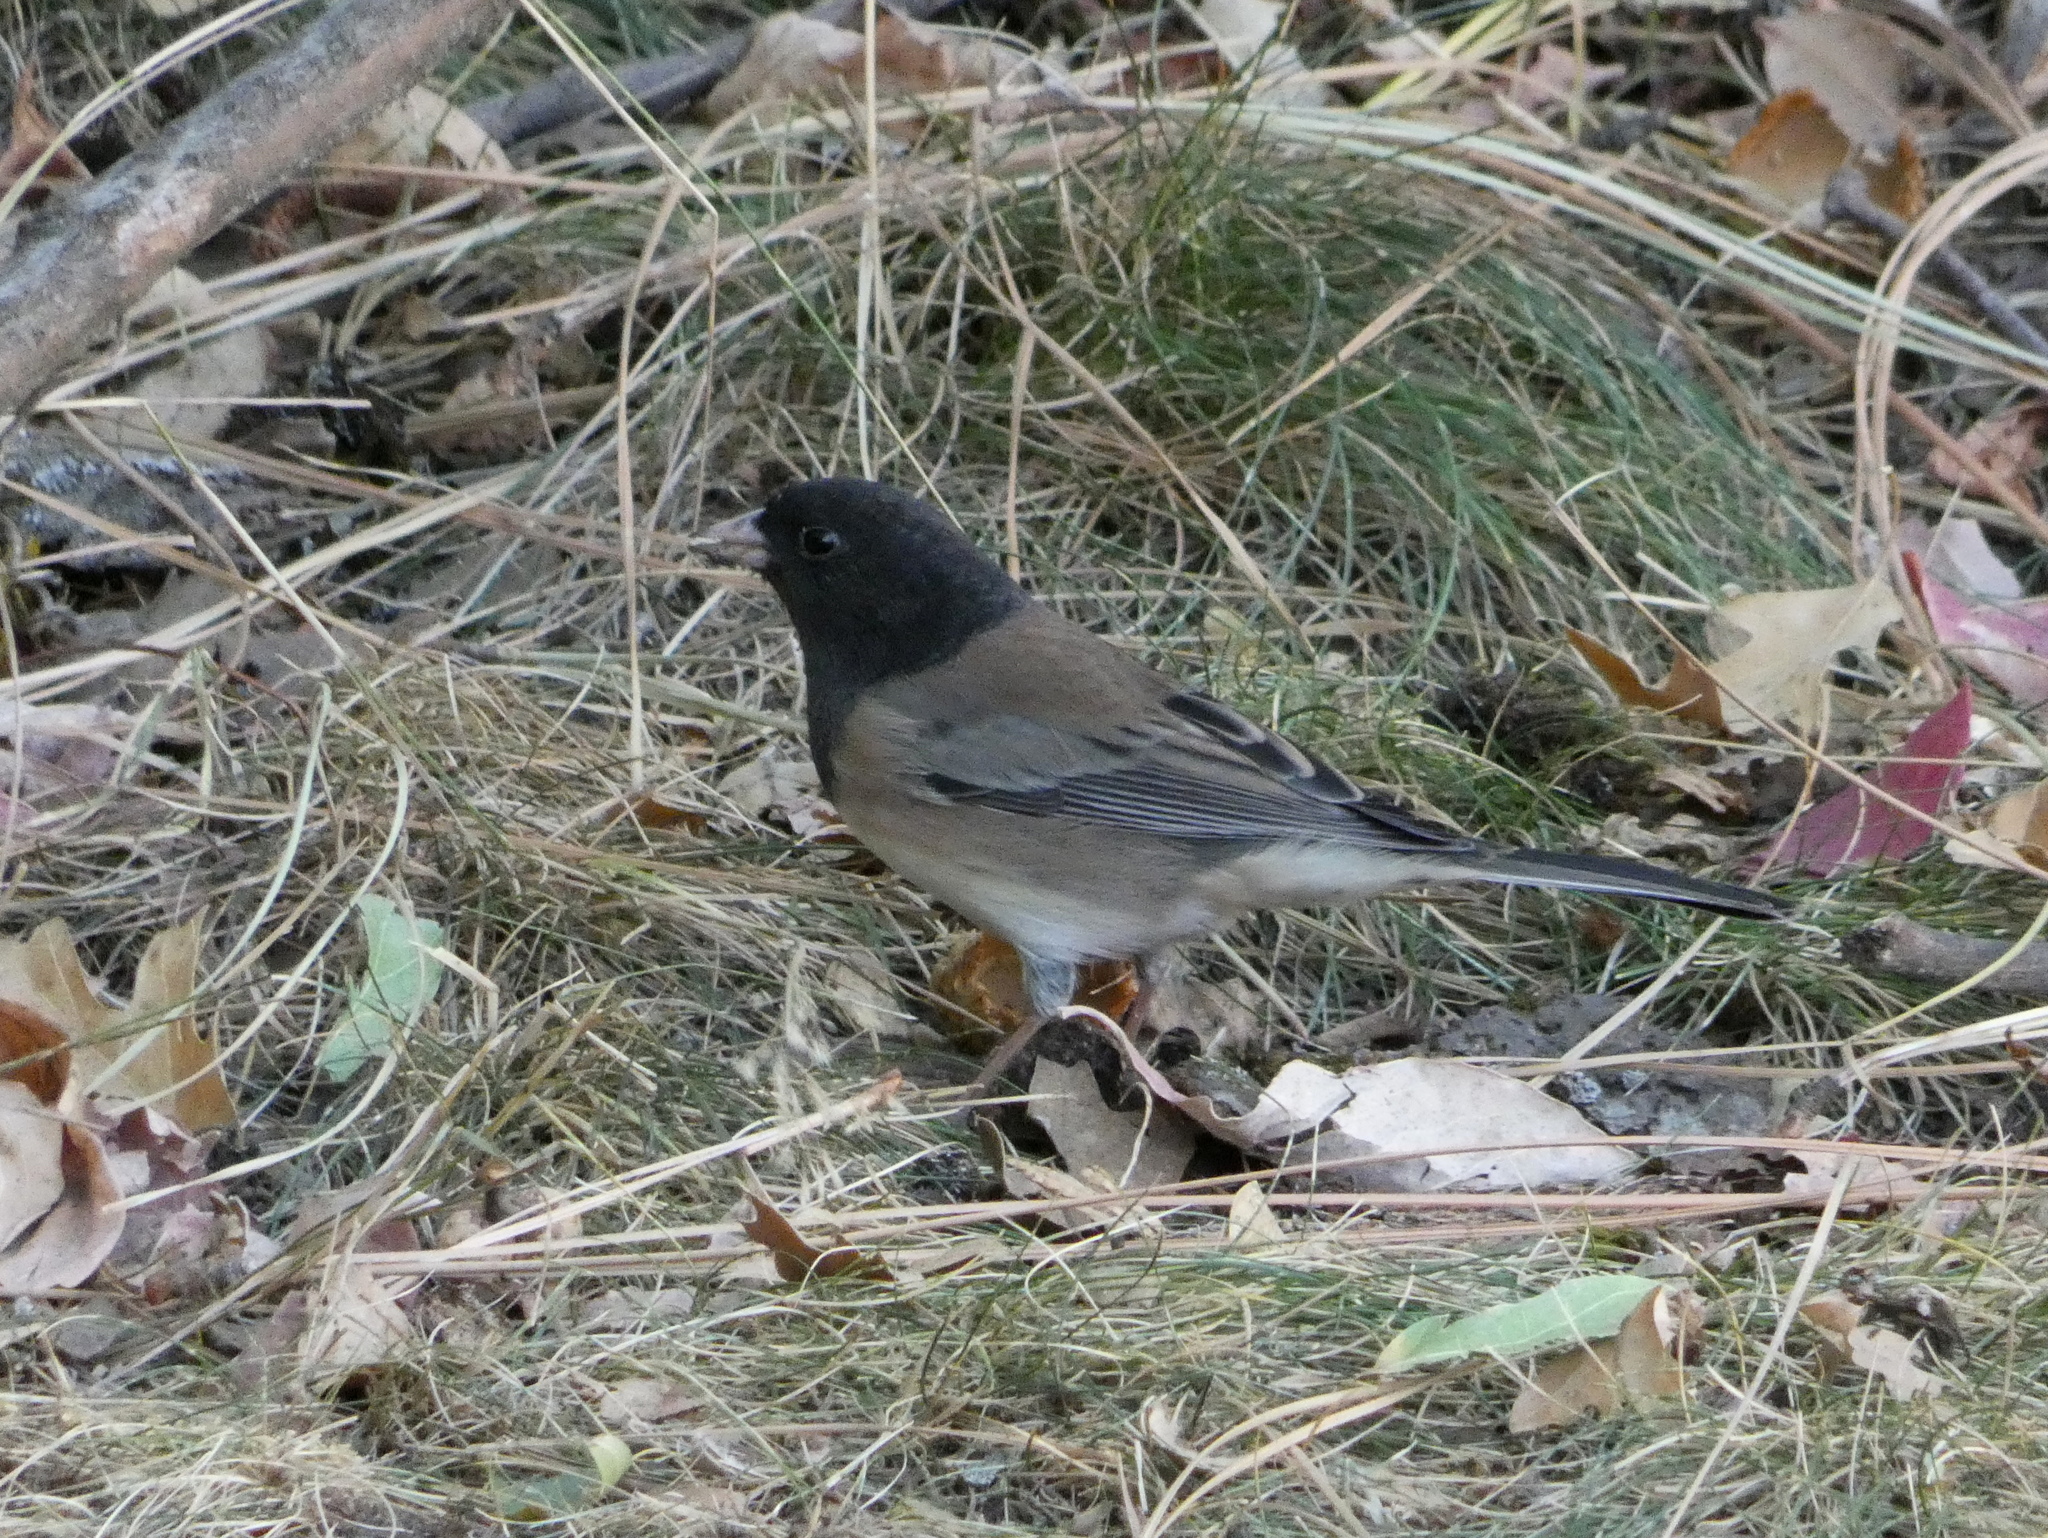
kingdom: Animalia
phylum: Chordata
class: Aves
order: Passeriformes
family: Passerellidae
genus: Junco
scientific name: Junco hyemalis
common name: Dark-eyed junco
